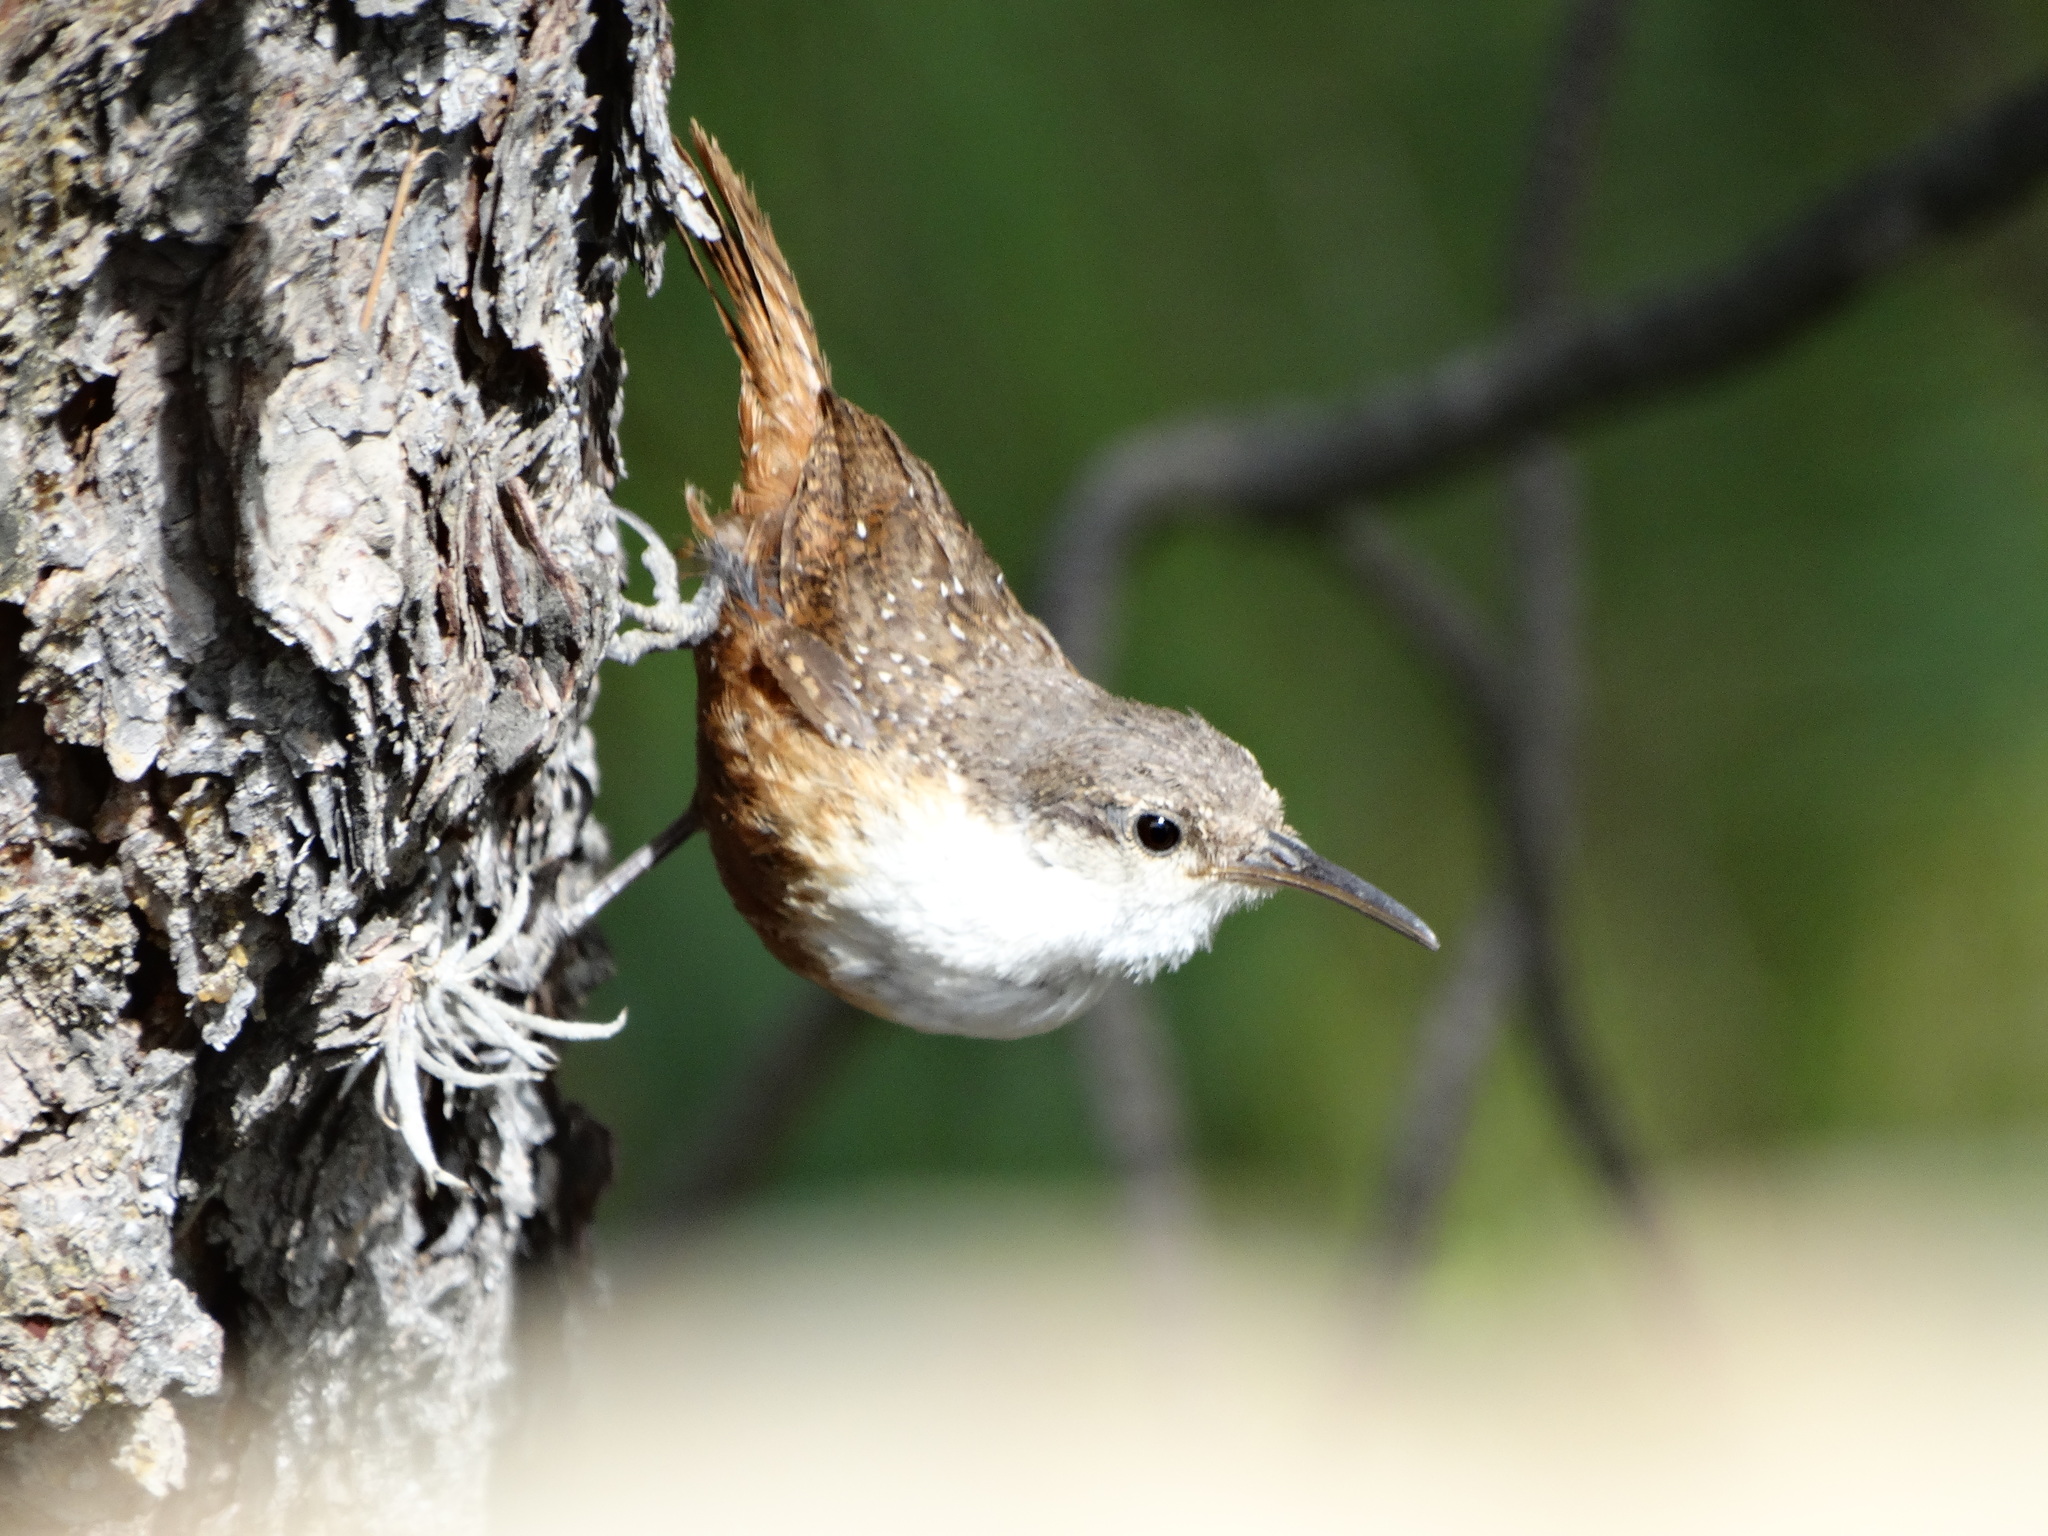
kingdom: Animalia
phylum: Chordata
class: Aves
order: Passeriformes
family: Troglodytidae
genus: Catherpes
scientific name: Catherpes mexicanus
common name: Canyon wren
